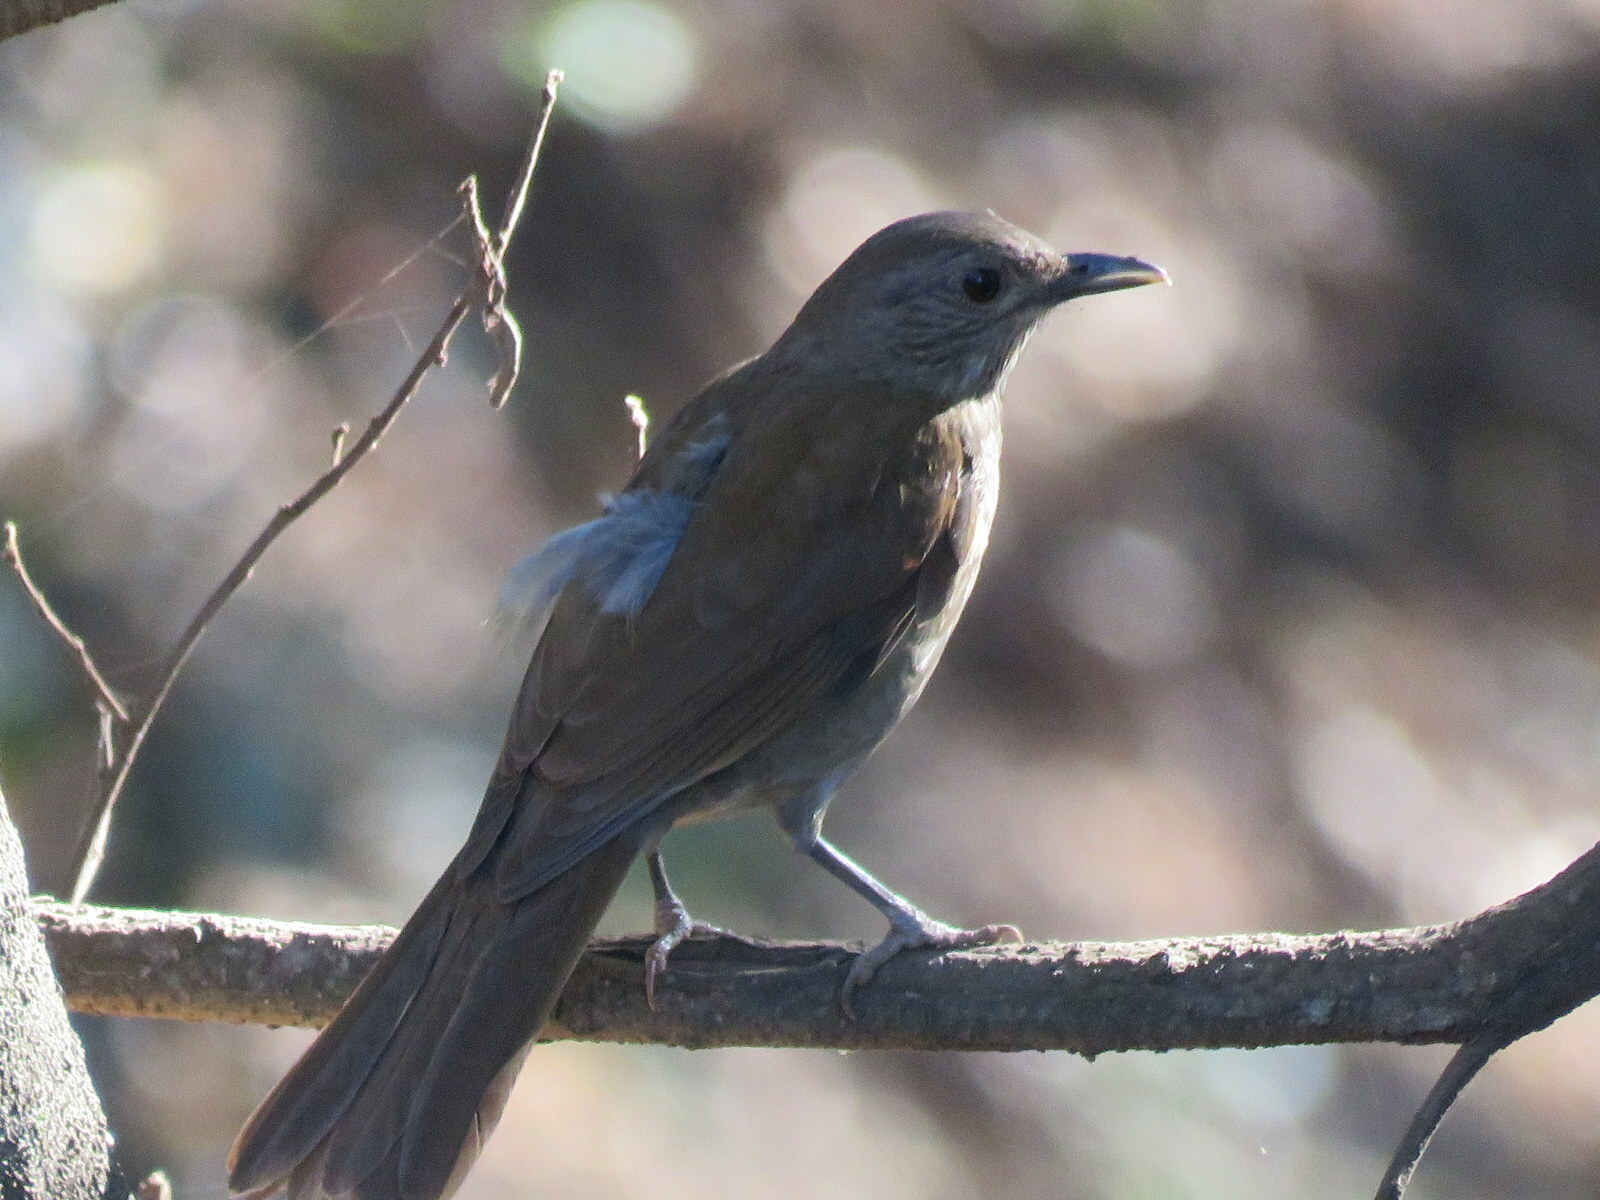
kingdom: Animalia
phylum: Chordata
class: Aves
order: Passeriformes
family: Turdidae
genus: Turdus
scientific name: Turdus leucomelas
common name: Pale-breasted thrush
